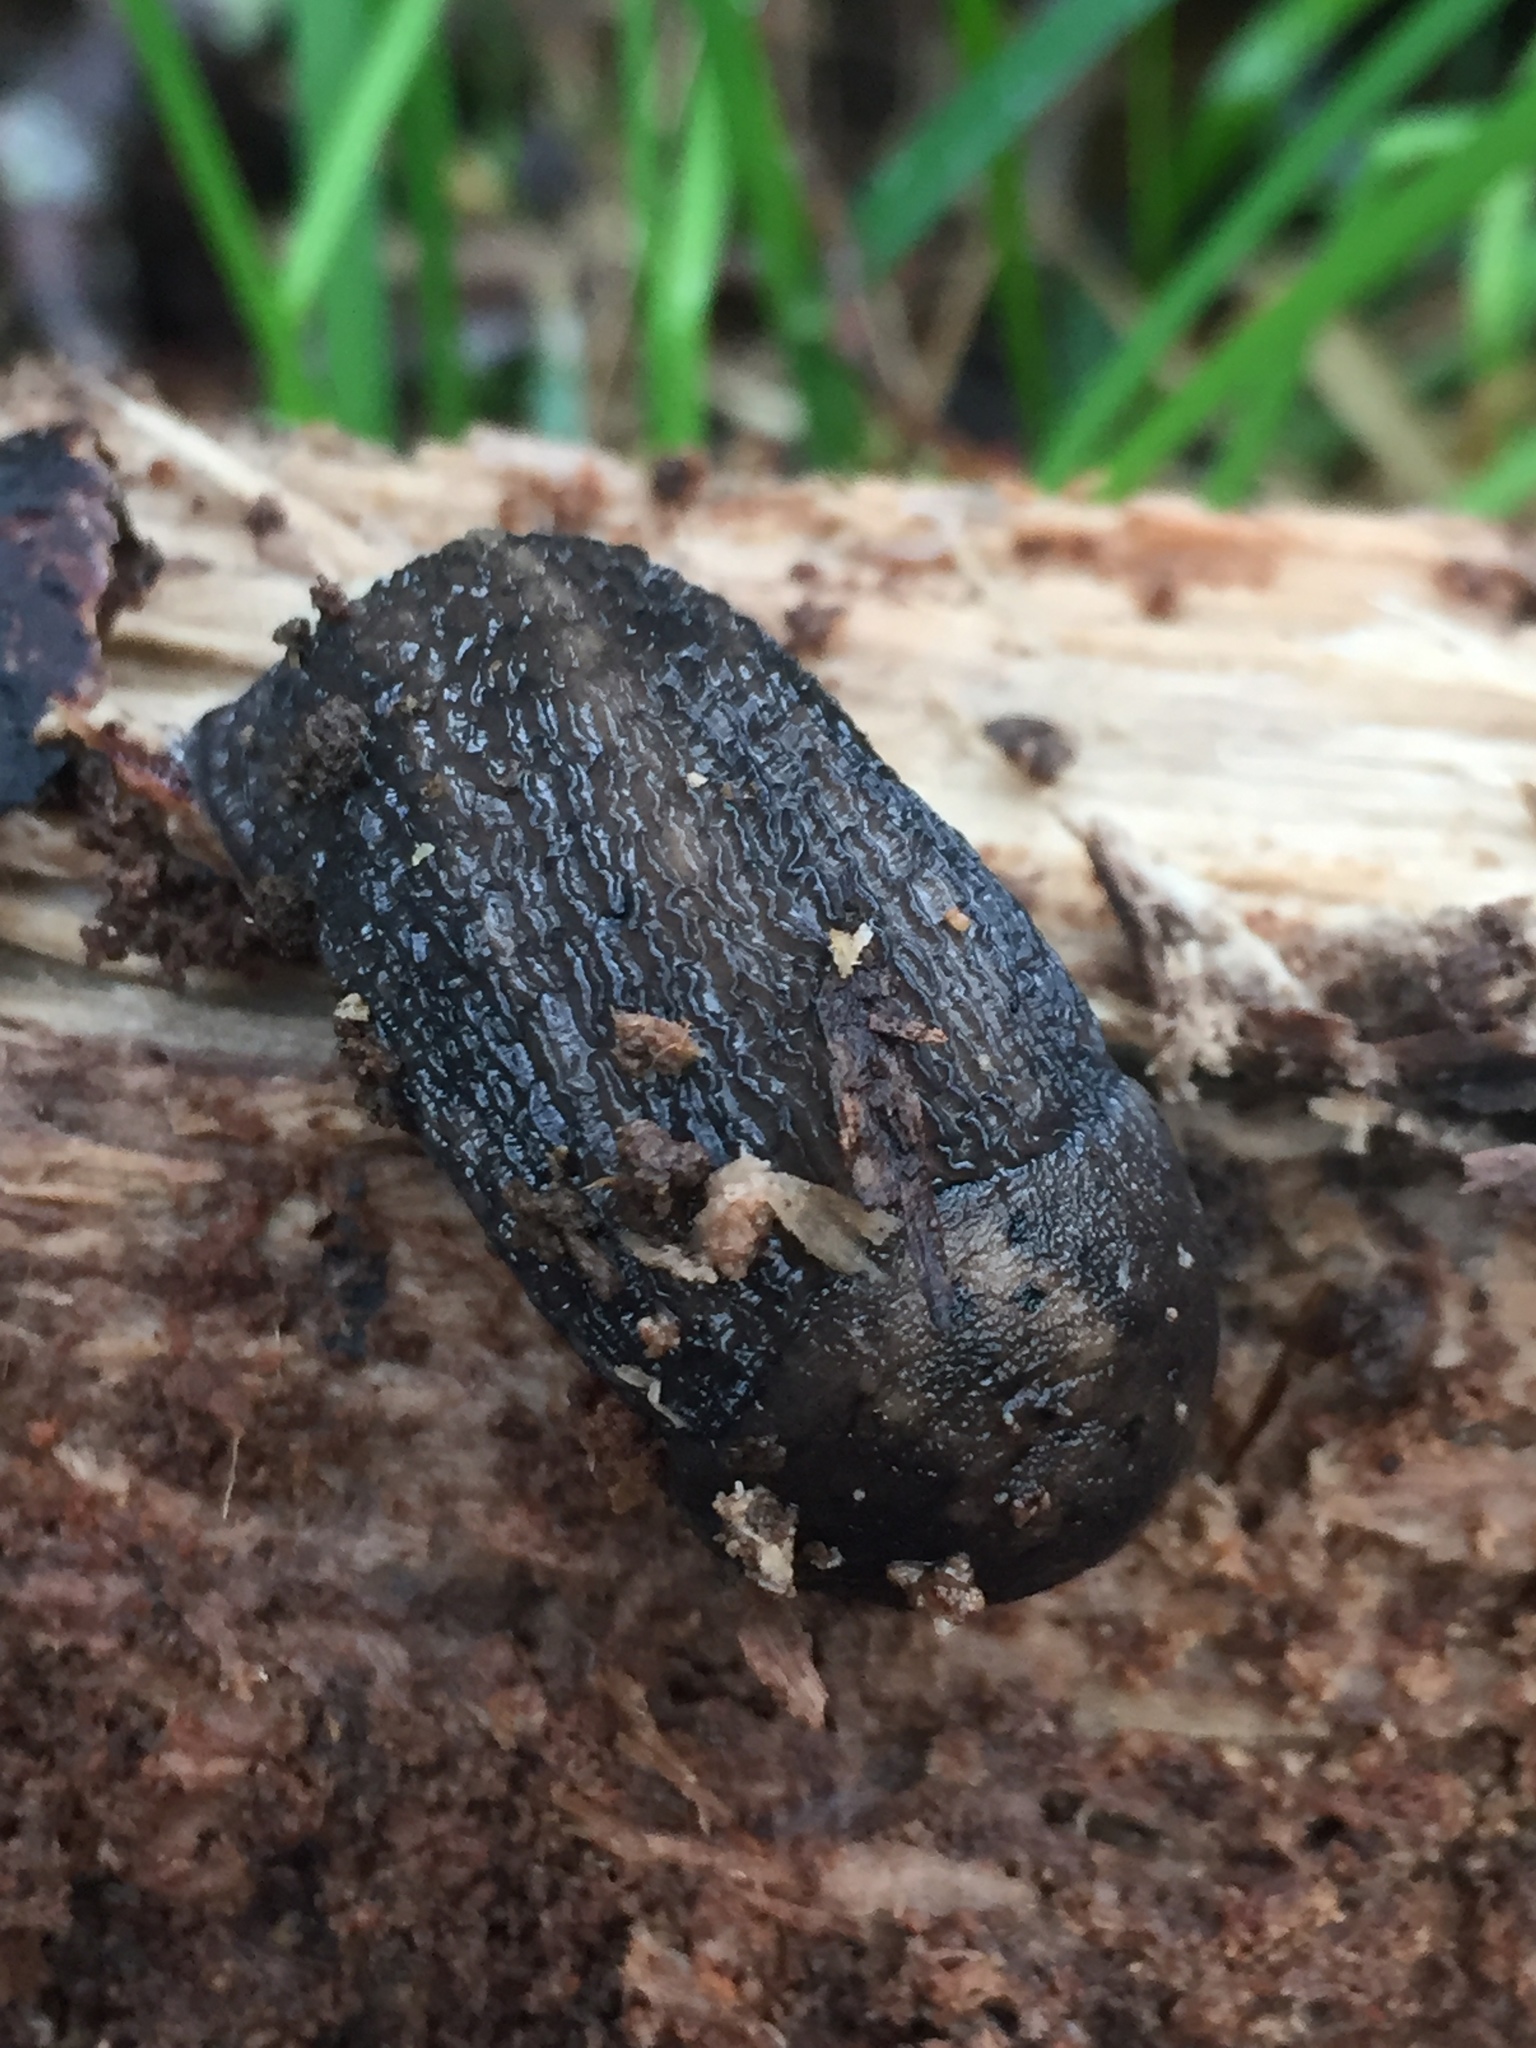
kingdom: Animalia
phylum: Mollusca
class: Gastropoda
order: Stylommatophora
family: Limacidae
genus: Limax
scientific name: Limax maximus
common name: Great grey slug
